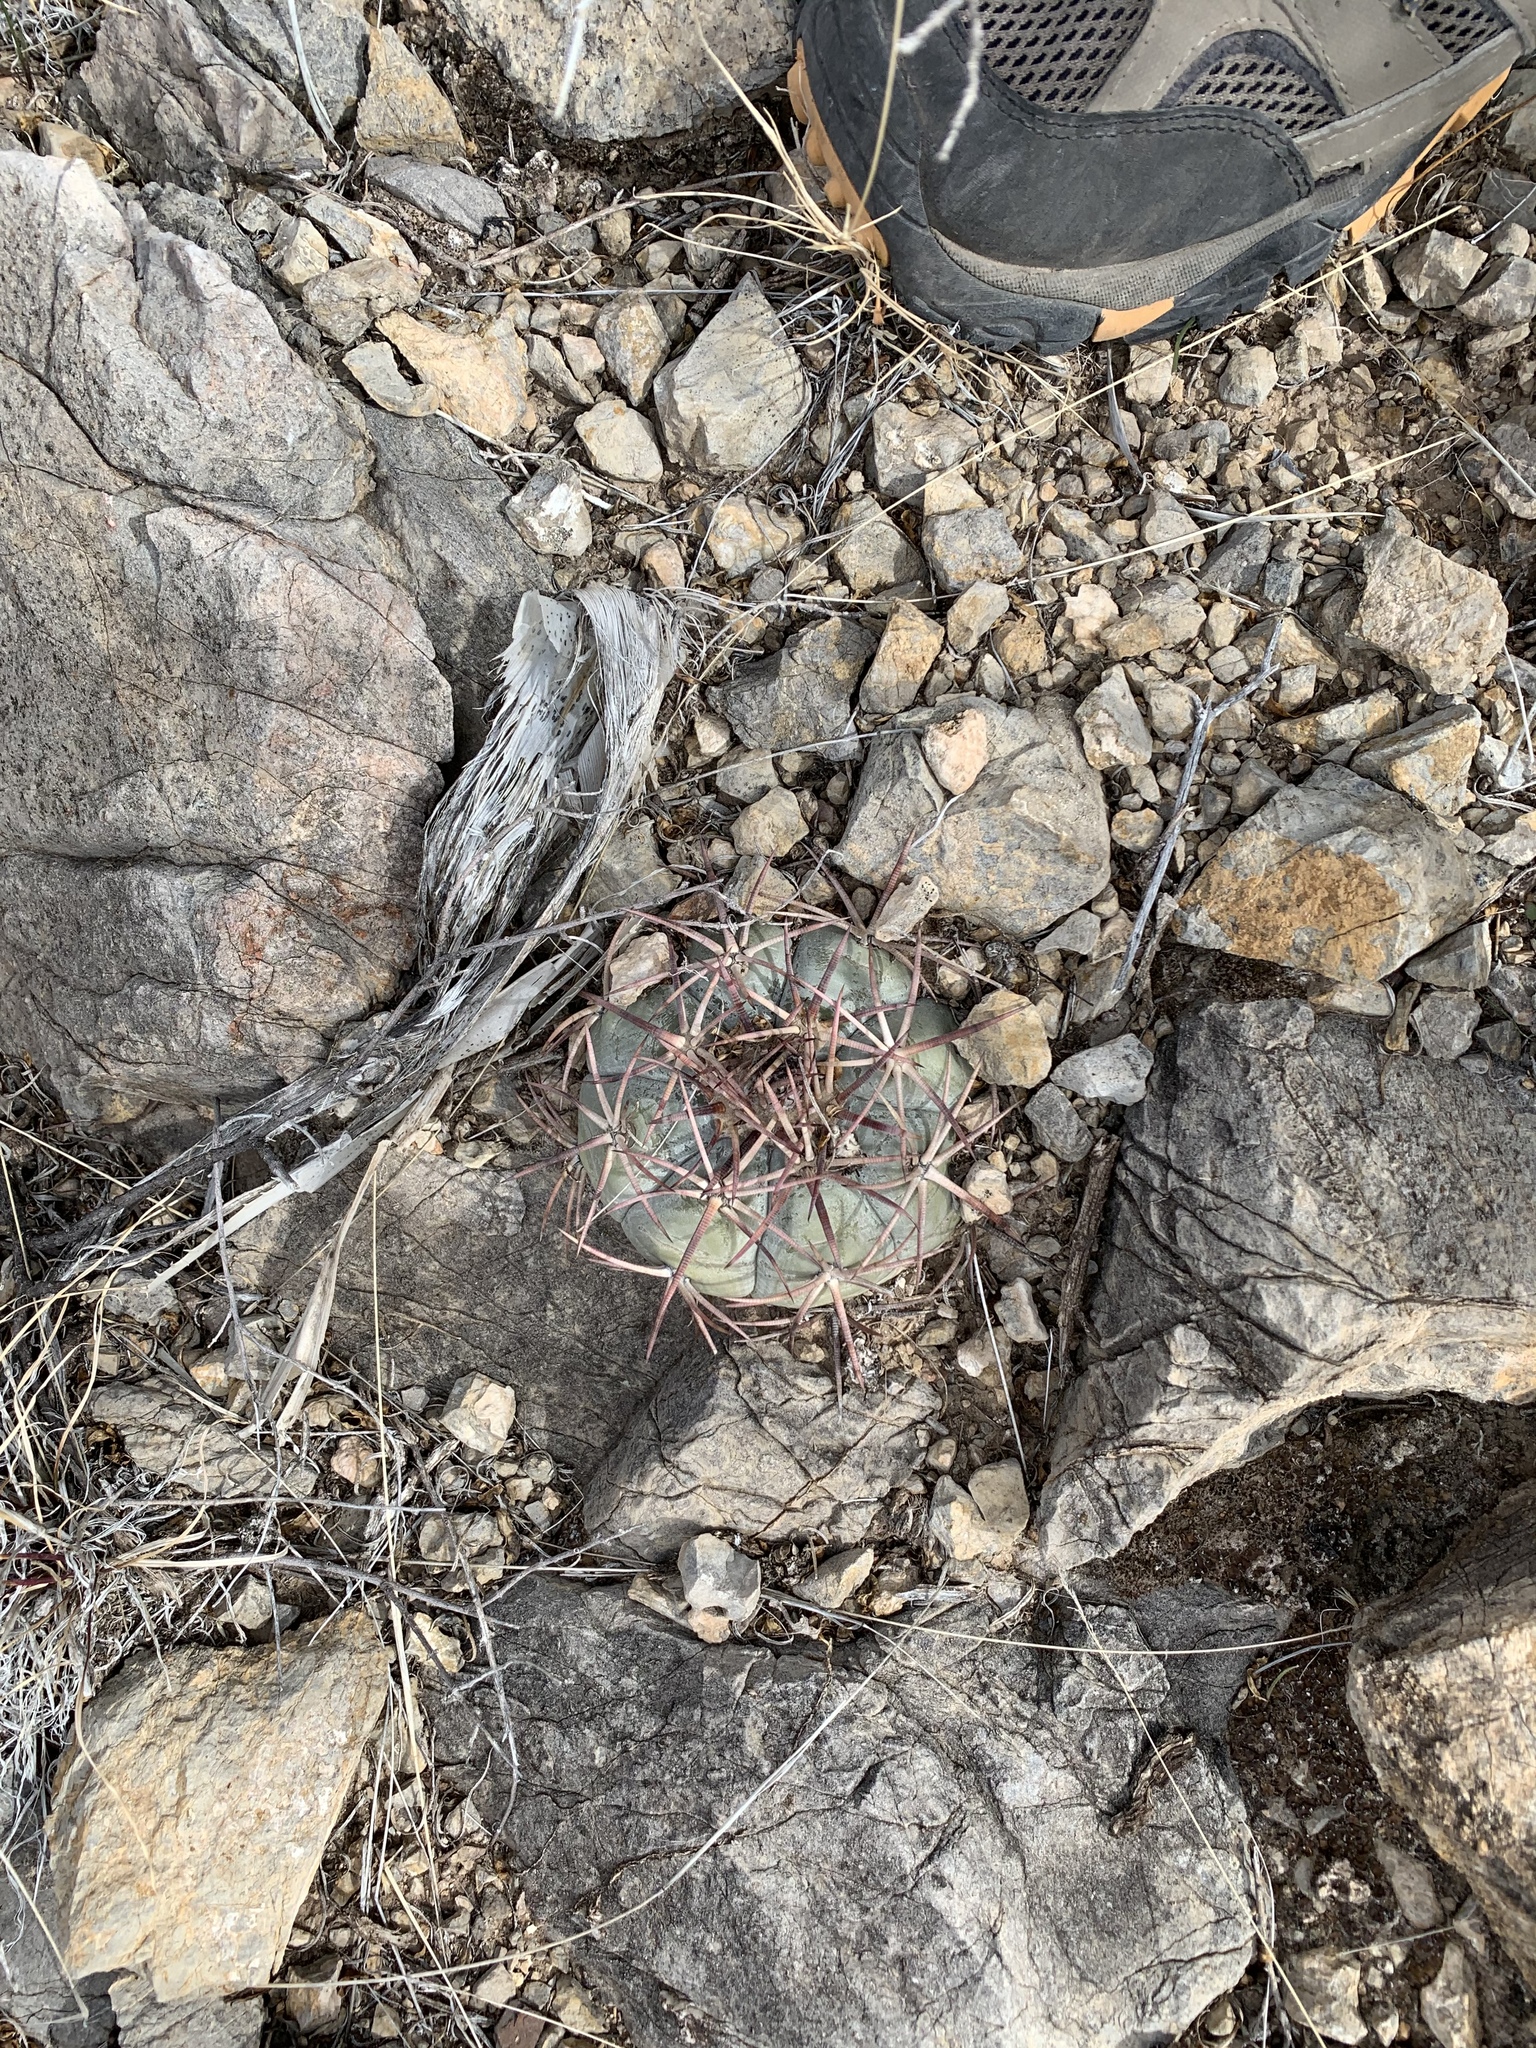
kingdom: Plantae
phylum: Tracheophyta
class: Magnoliopsida
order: Caryophyllales
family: Cactaceae
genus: Echinocactus
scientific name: Echinocactus horizonthalonius
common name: Devilshead
